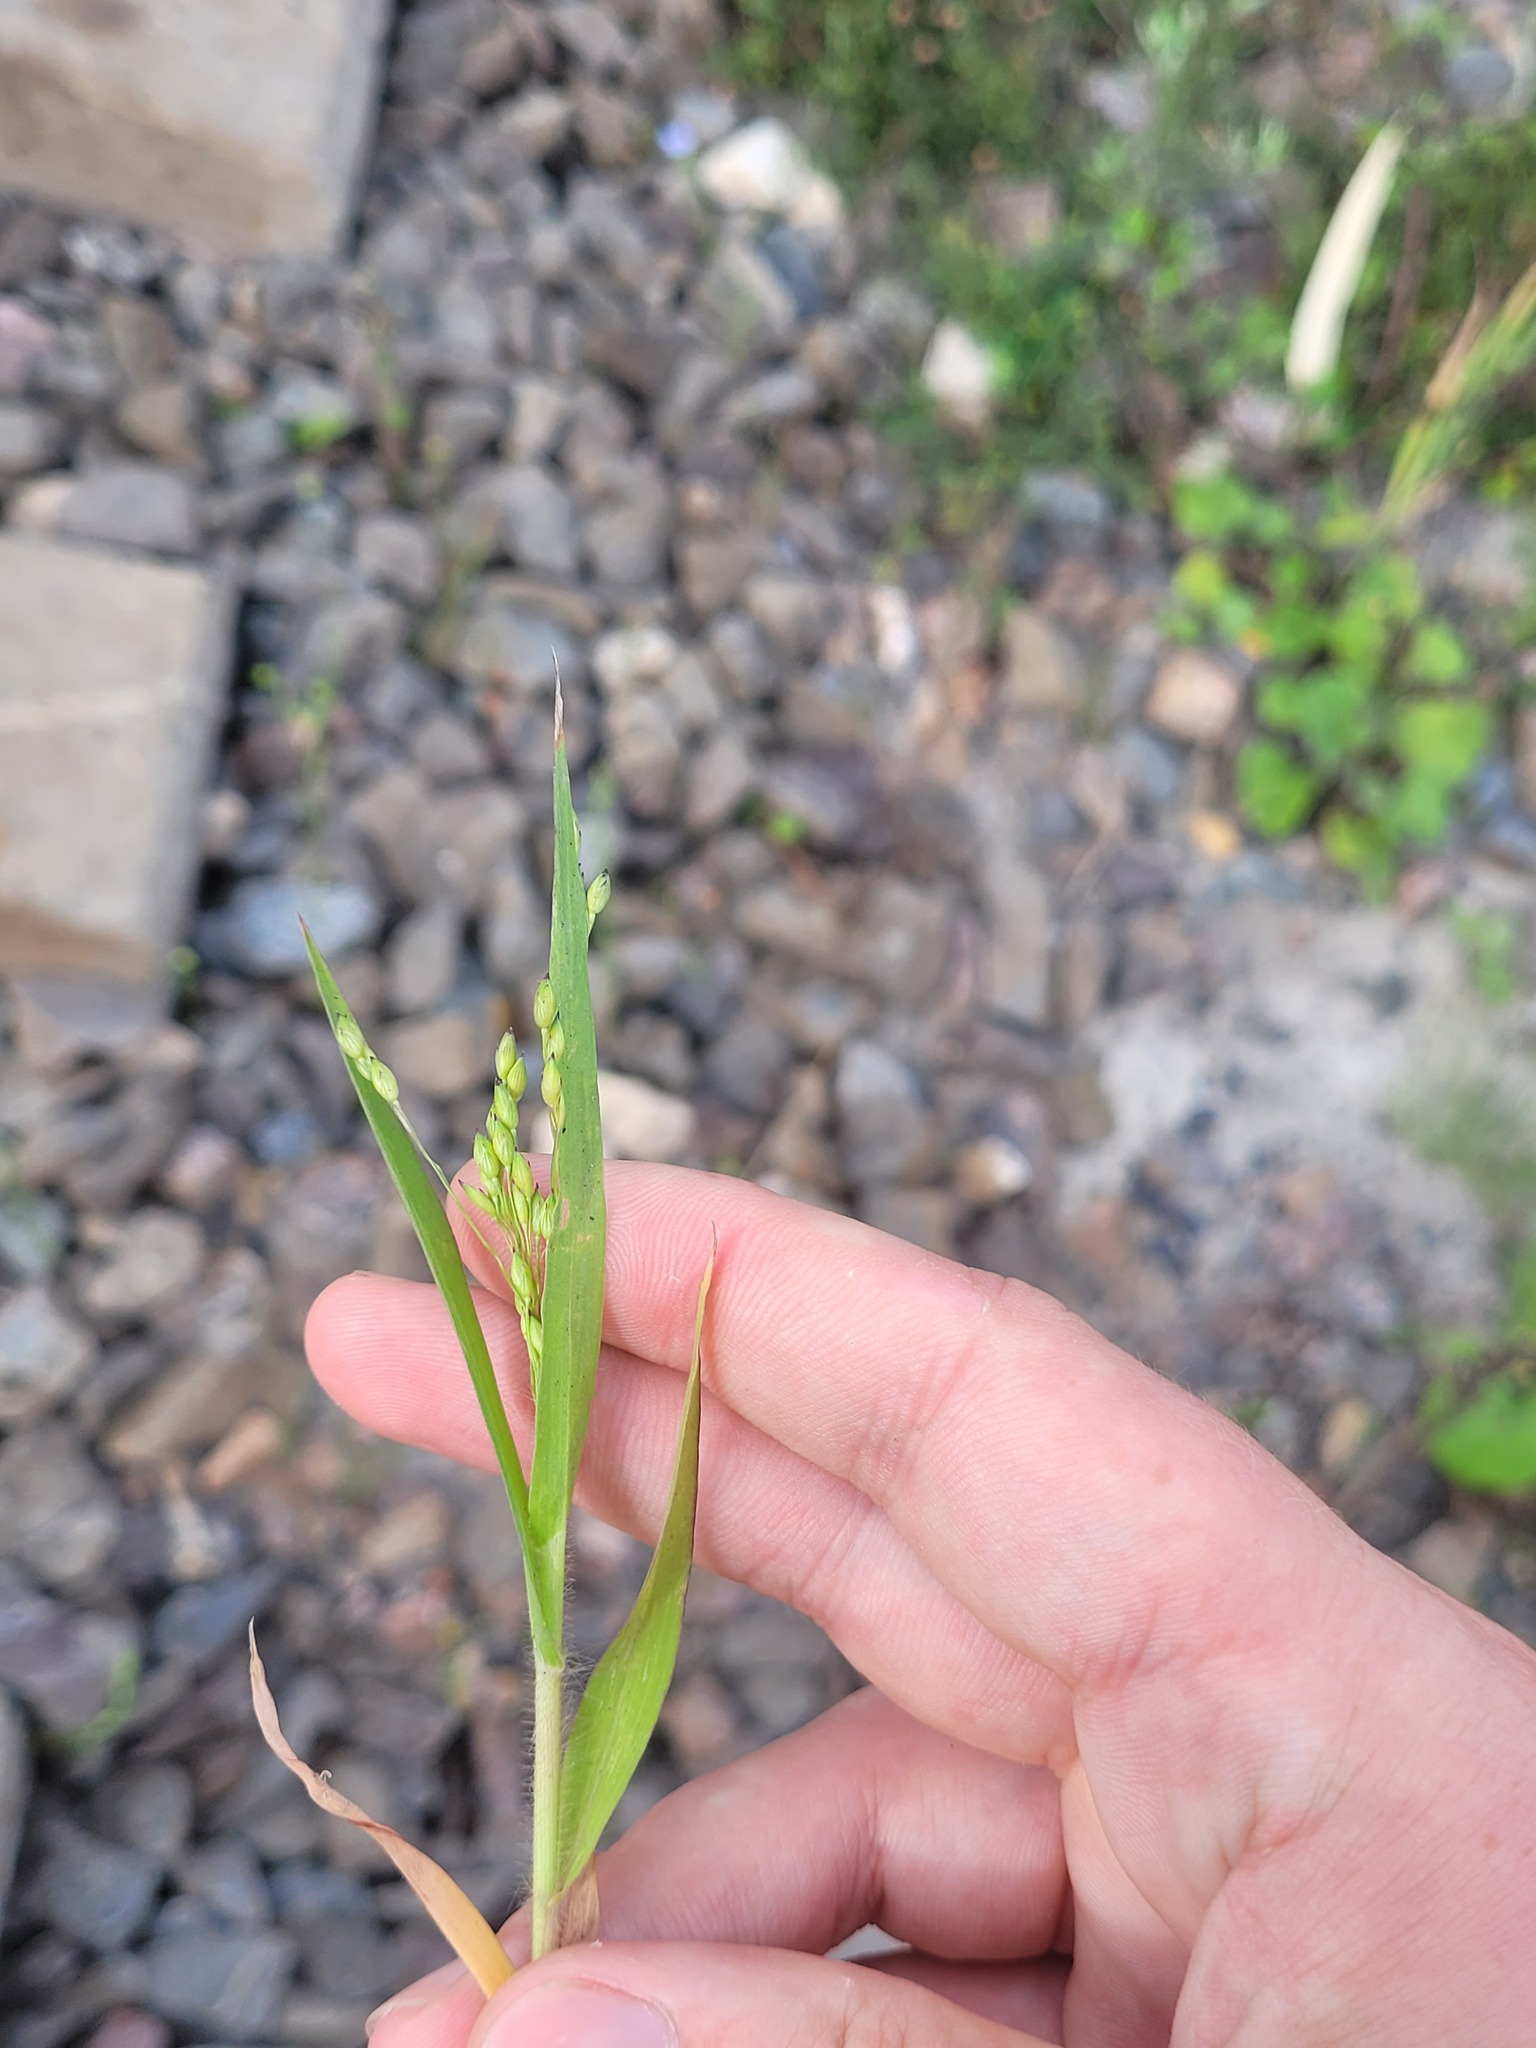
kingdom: Plantae
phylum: Tracheophyta
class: Liliopsida
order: Poales
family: Poaceae
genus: Panicum
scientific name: Panicum miliaceum
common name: Common millet
